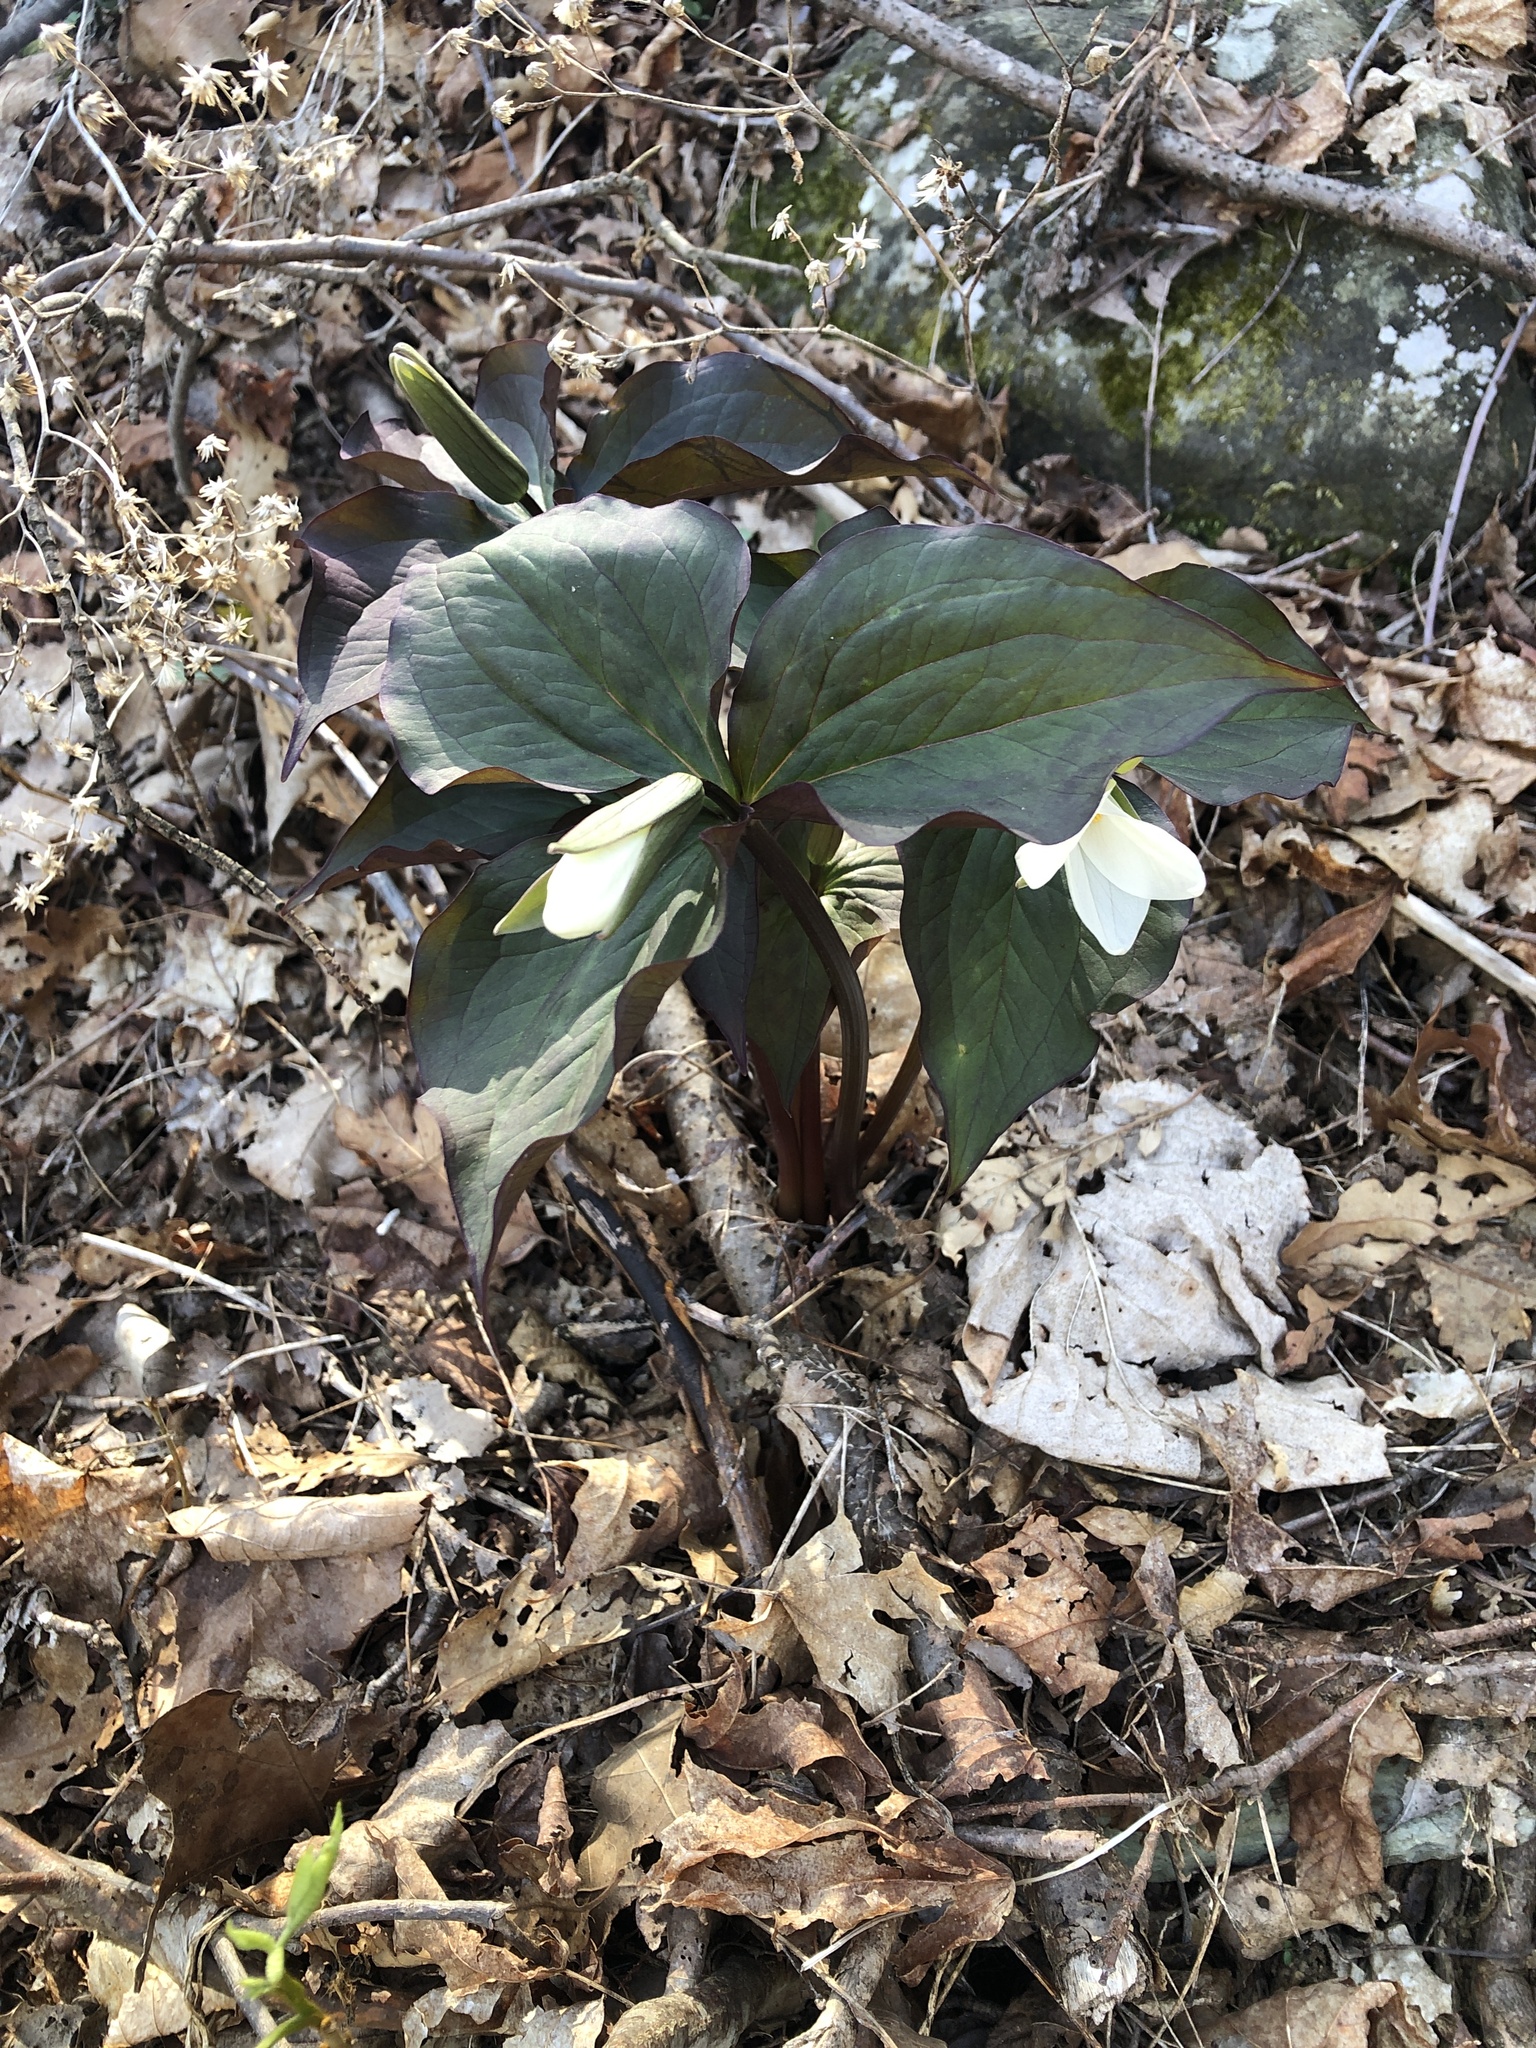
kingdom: Plantae
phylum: Tracheophyta
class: Liliopsida
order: Liliales
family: Melanthiaceae
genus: Trillium
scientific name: Trillium grandiflorum
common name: Great white trillium
